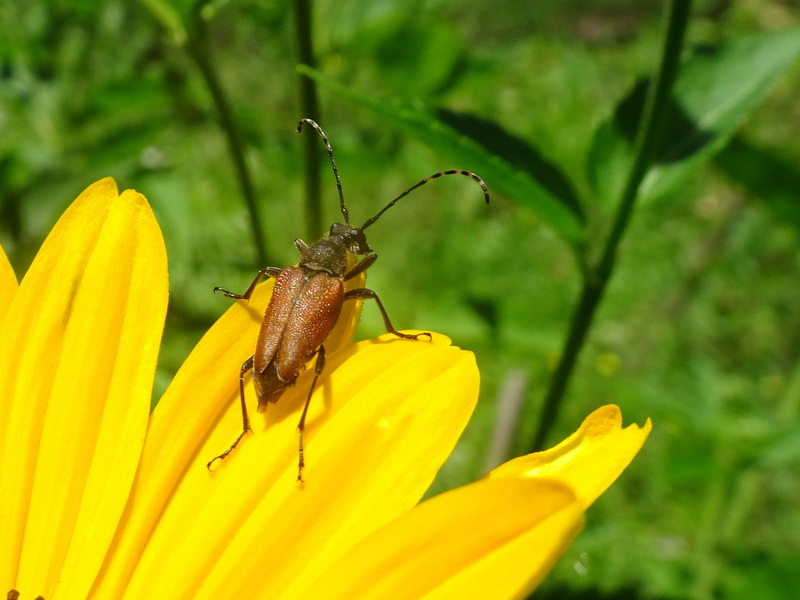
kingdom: Animalia
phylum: Arthropoda
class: Insecta
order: Coleoptera
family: Cerambycidae
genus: Brachyleptura
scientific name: Brachyleptura rubrica
